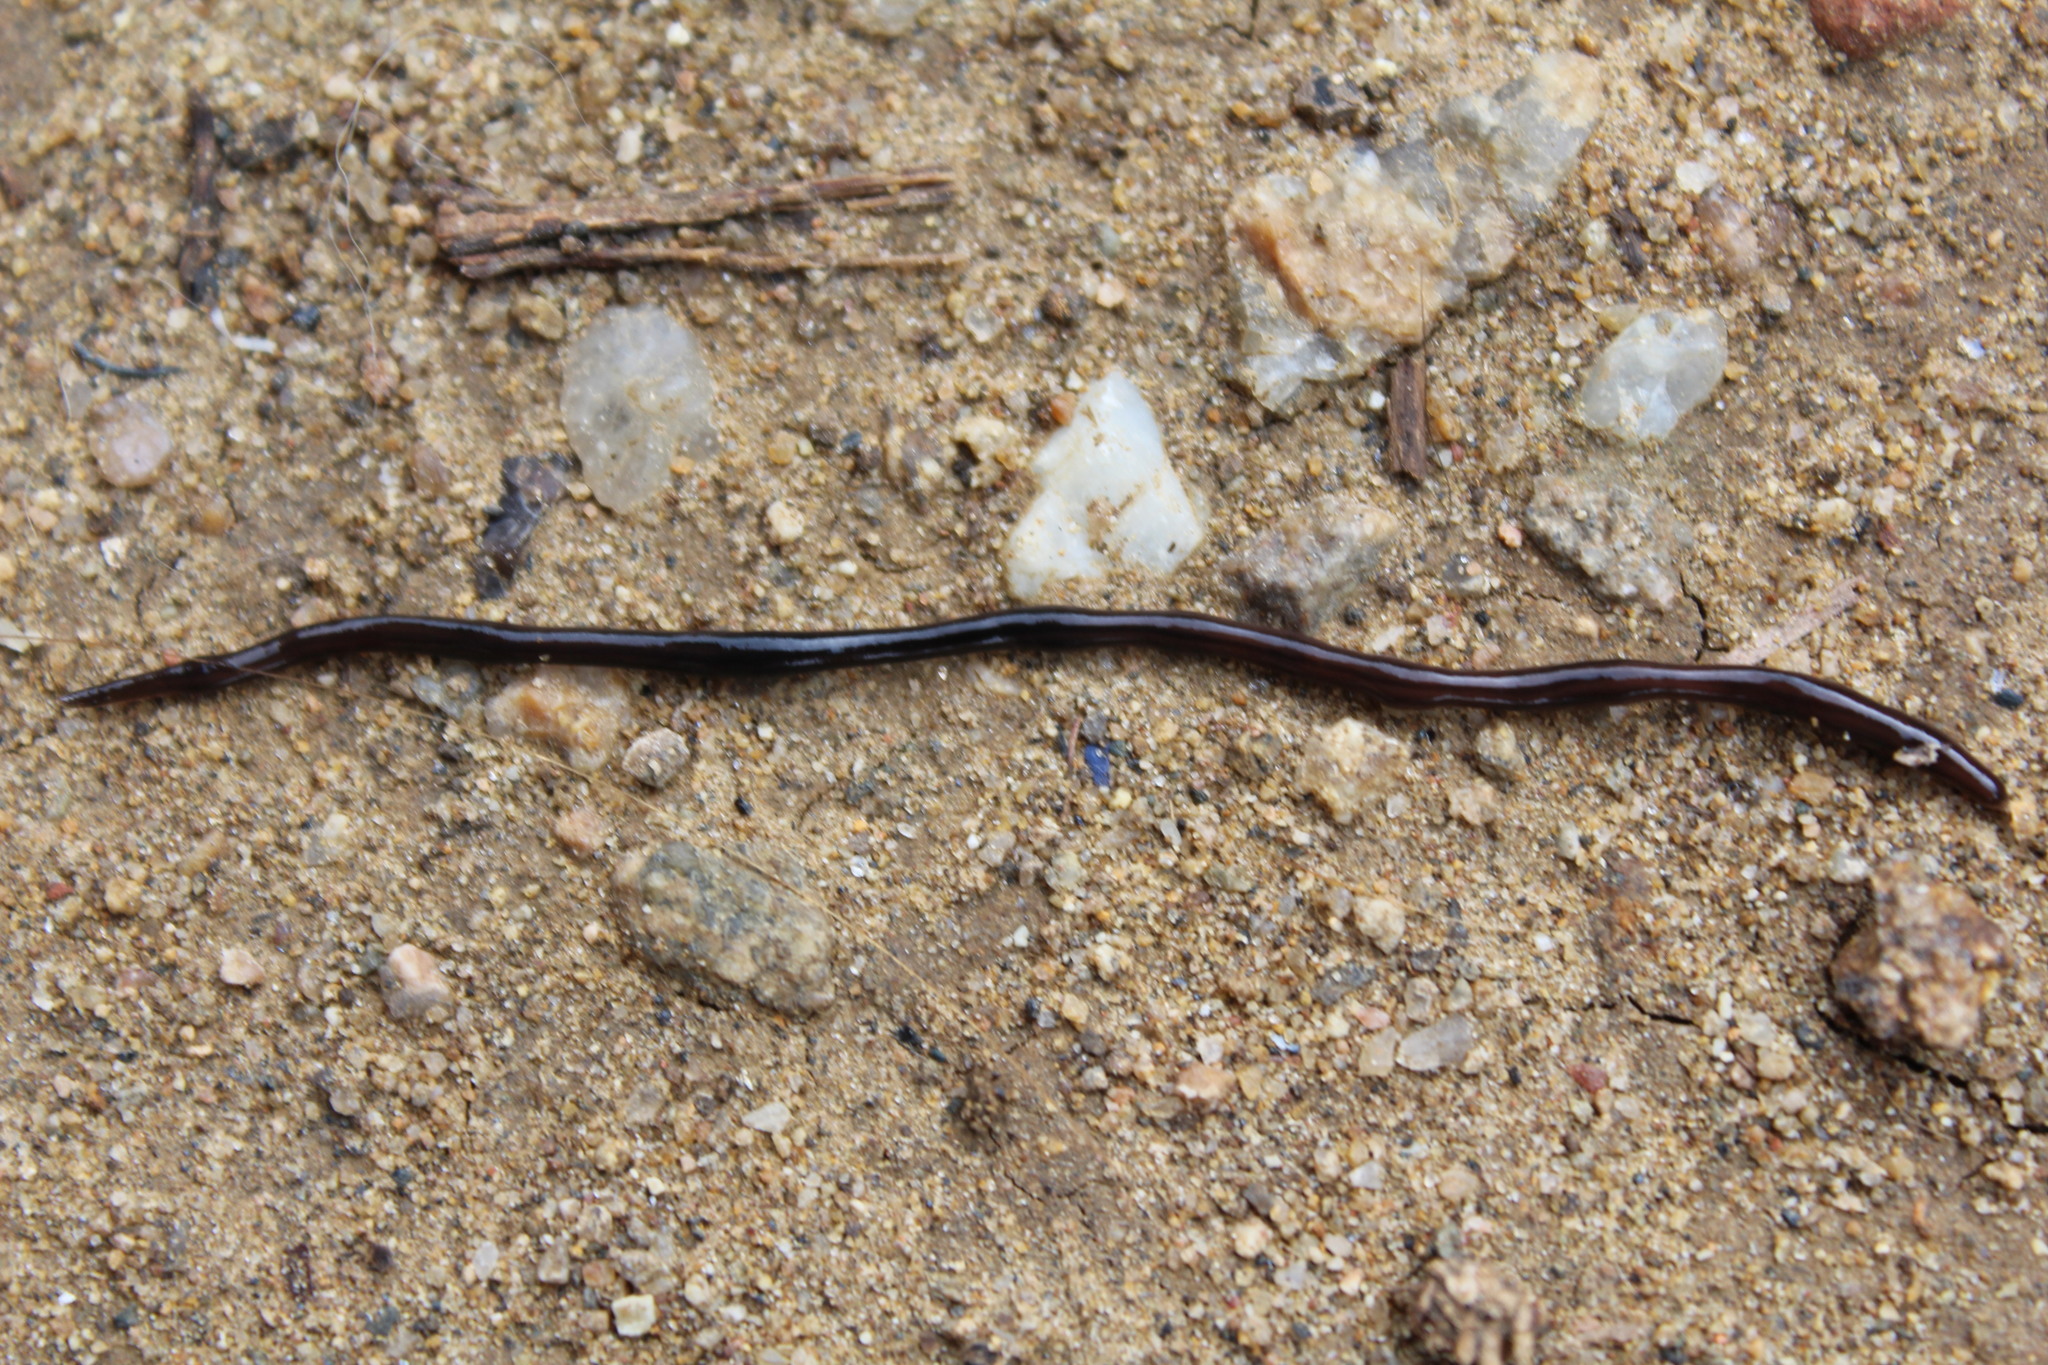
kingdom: Animalia
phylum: Chordata
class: Squamata
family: Typhlopidae
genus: Indotyphlops
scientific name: Indotyphlops braminus
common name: Brahminy blindsnake
